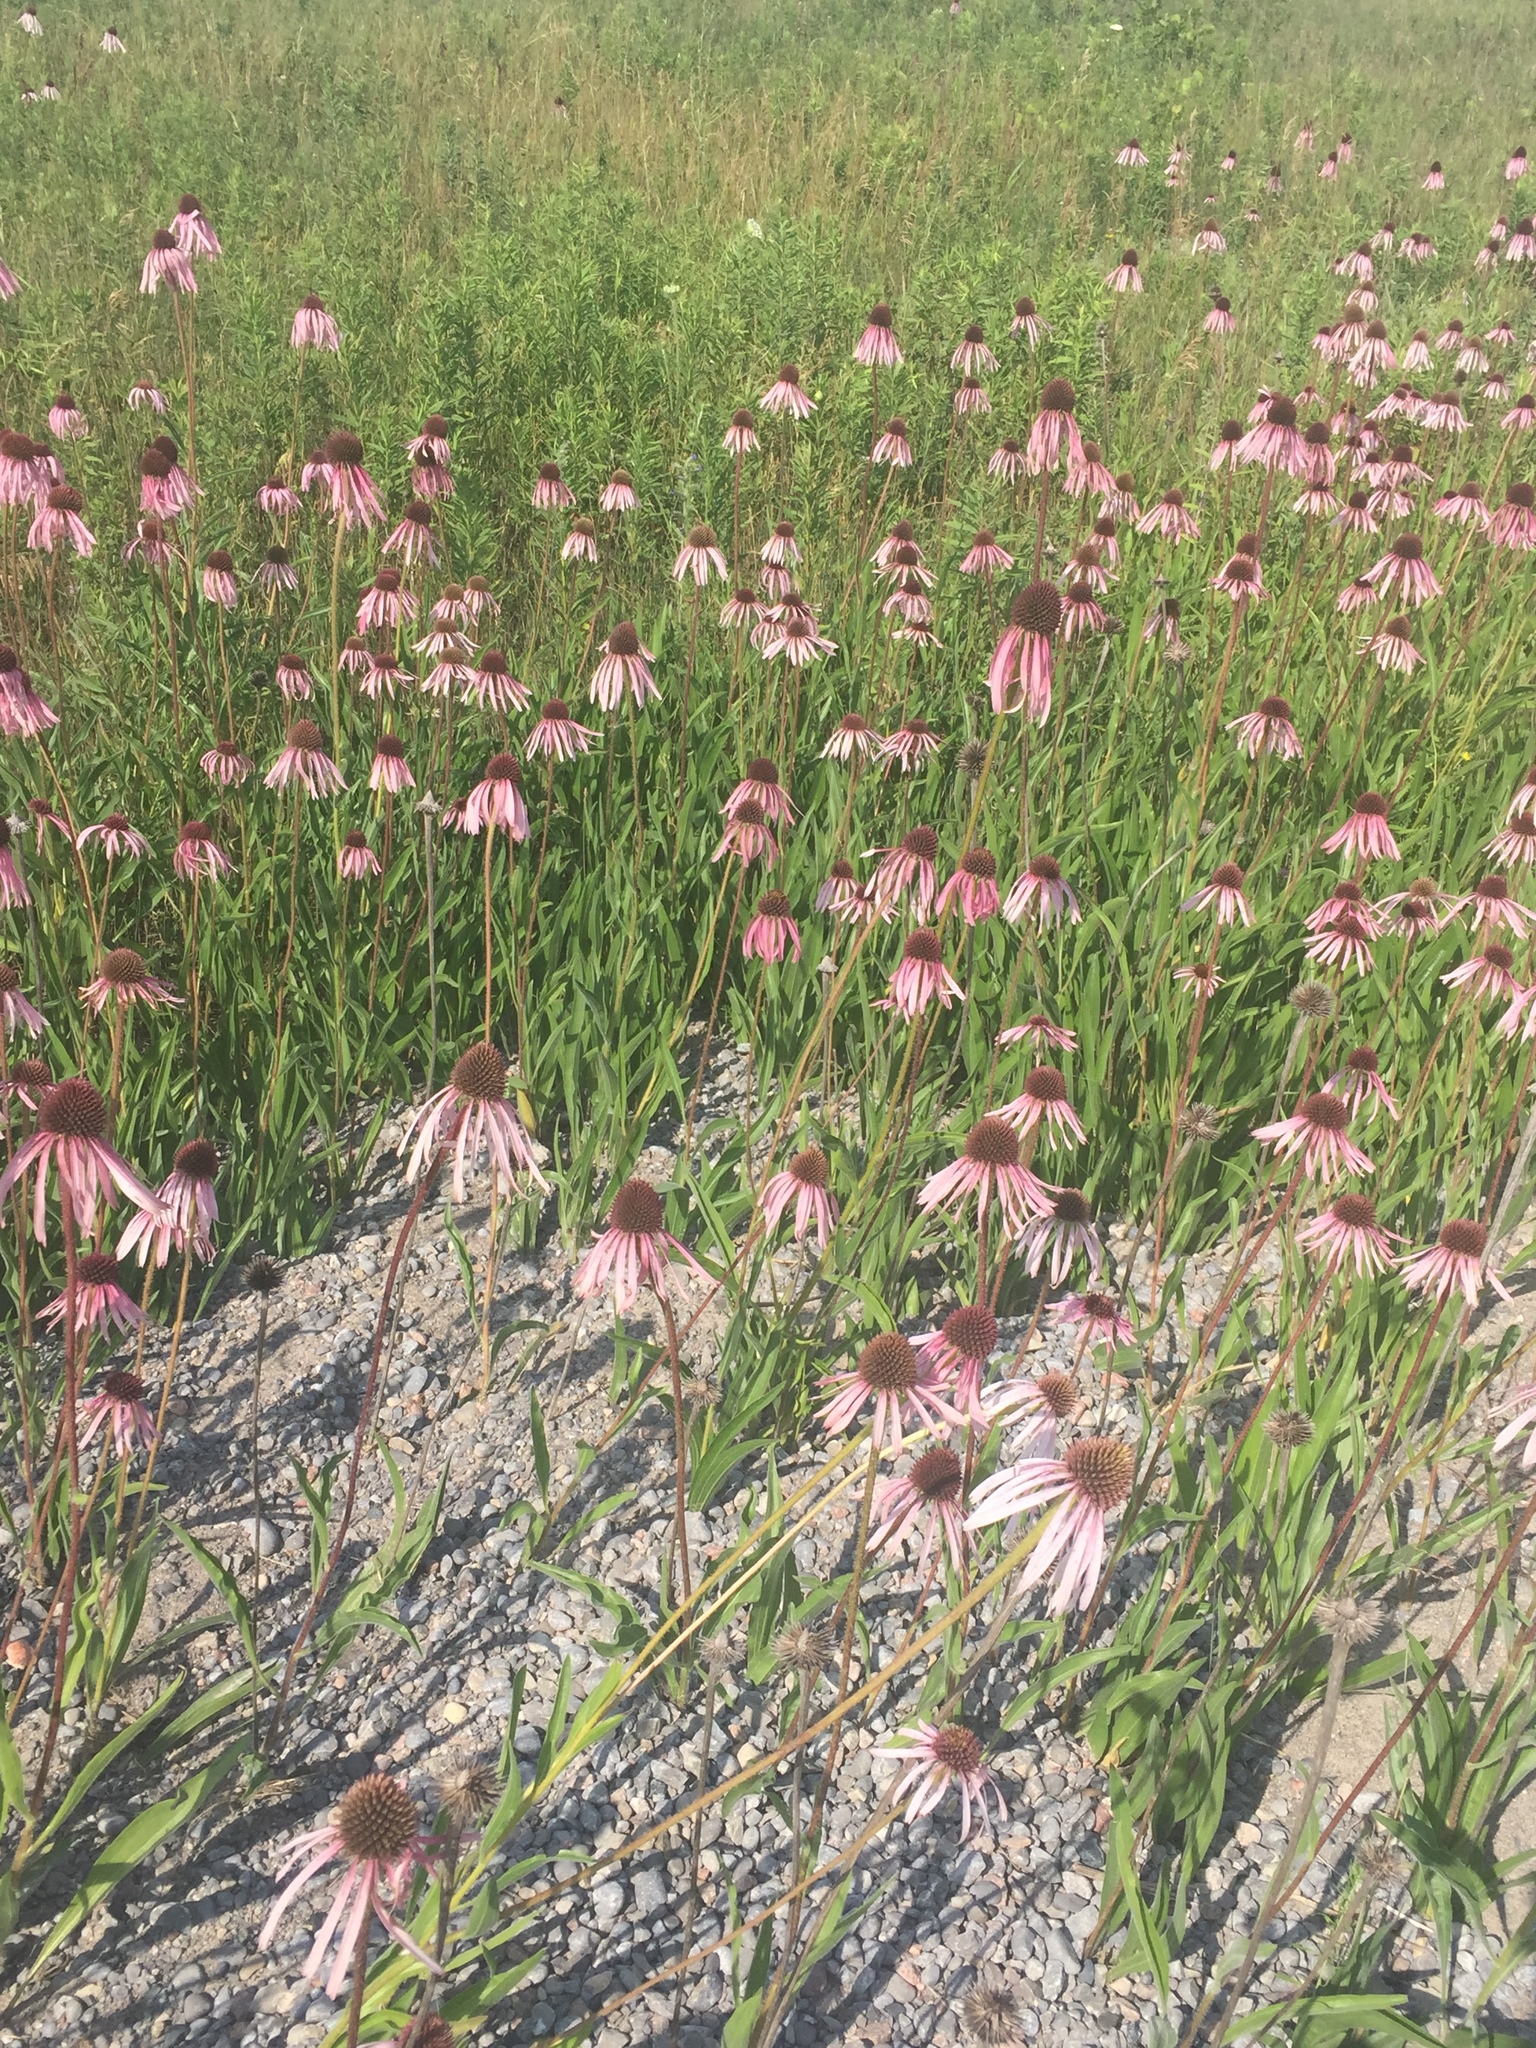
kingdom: Plantae
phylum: Tracheophyta
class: Magnoliopsida
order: Asterales
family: Asteraceae
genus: Echinacea
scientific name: Echinacea pallida
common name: Pale echinacea
